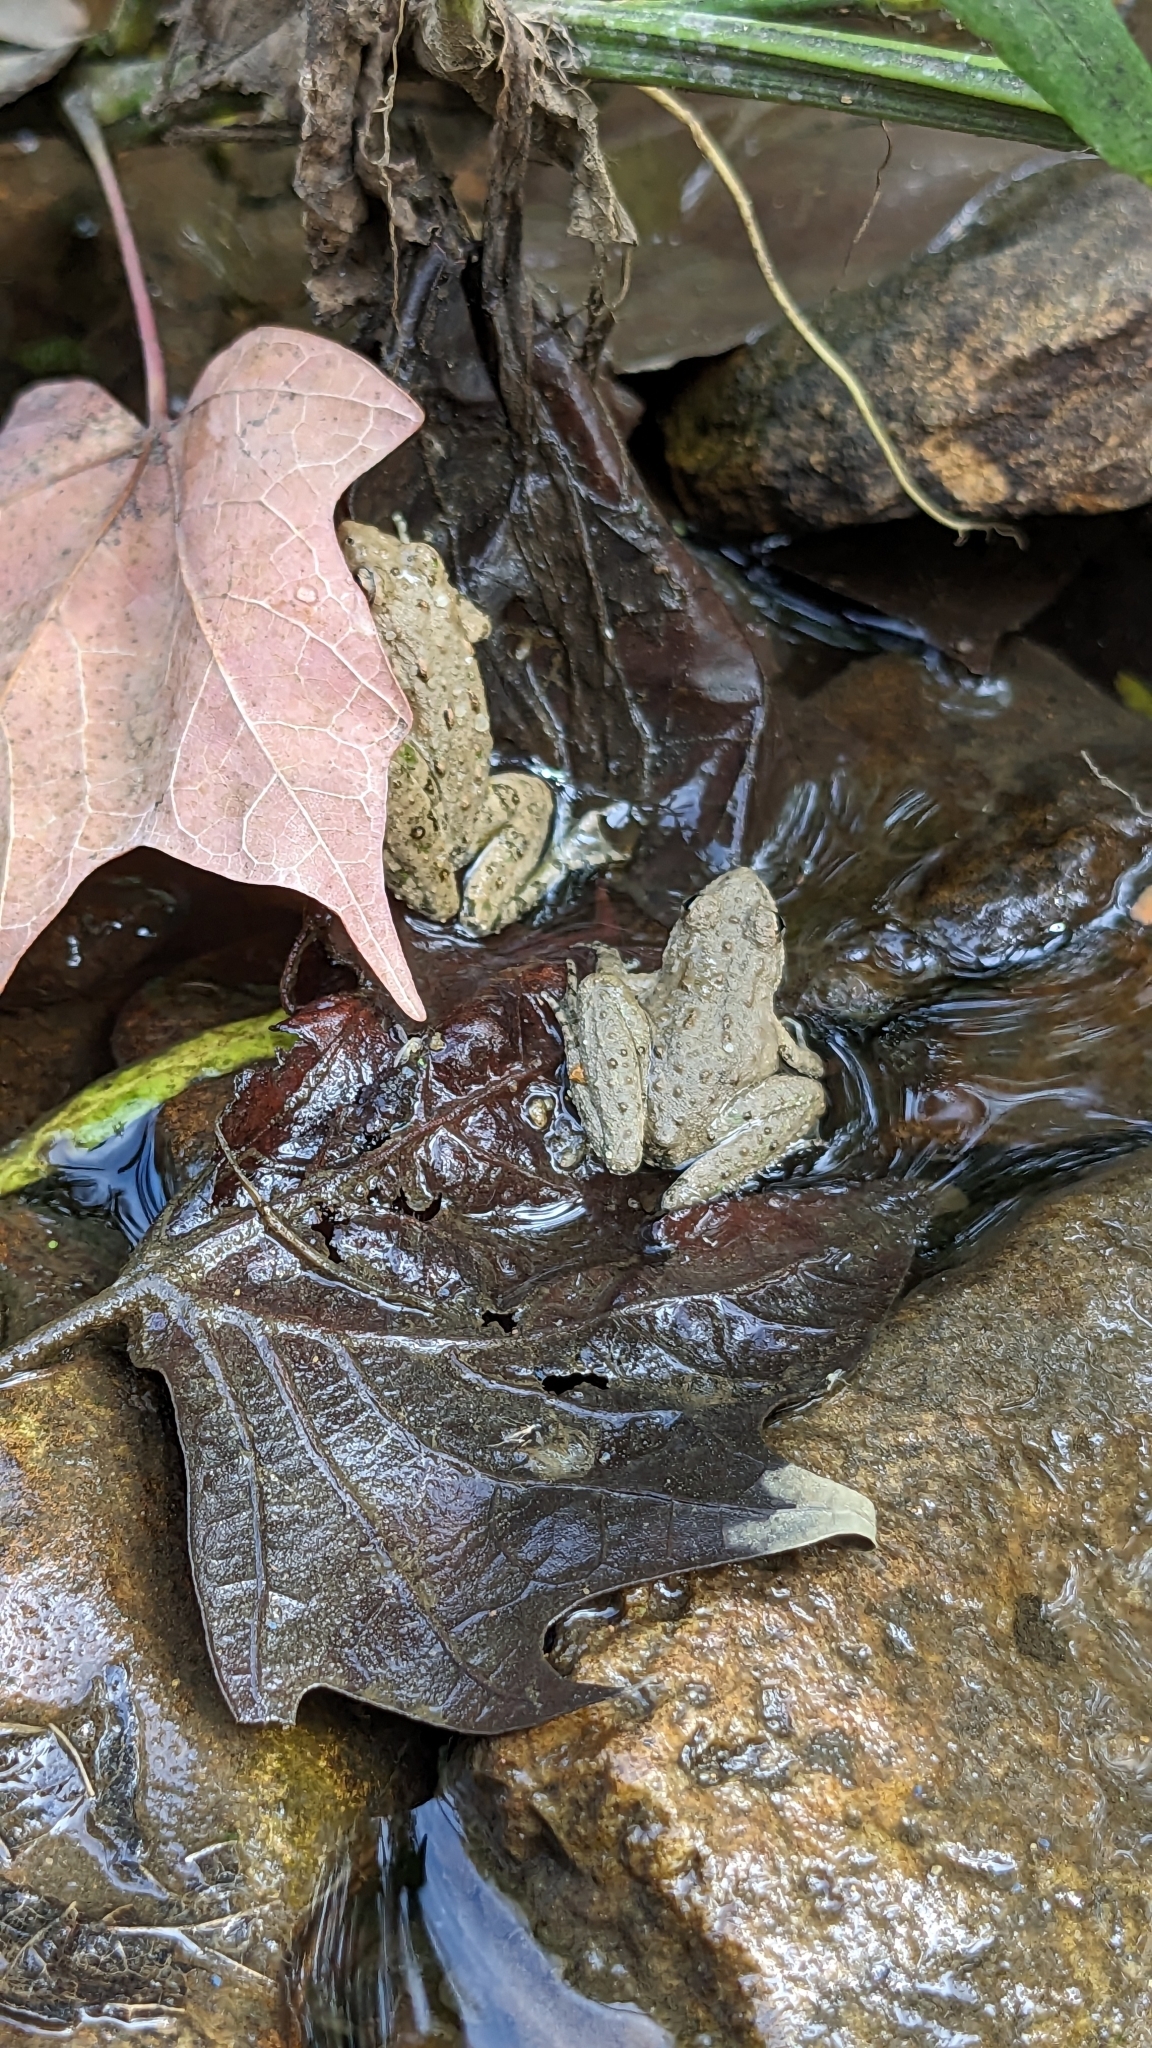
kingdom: Animalia
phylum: Chordata
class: Amphibia
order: Anura
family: Hylidae
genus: Acris
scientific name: Acris blanchardi
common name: Blanchard's cricket frog
